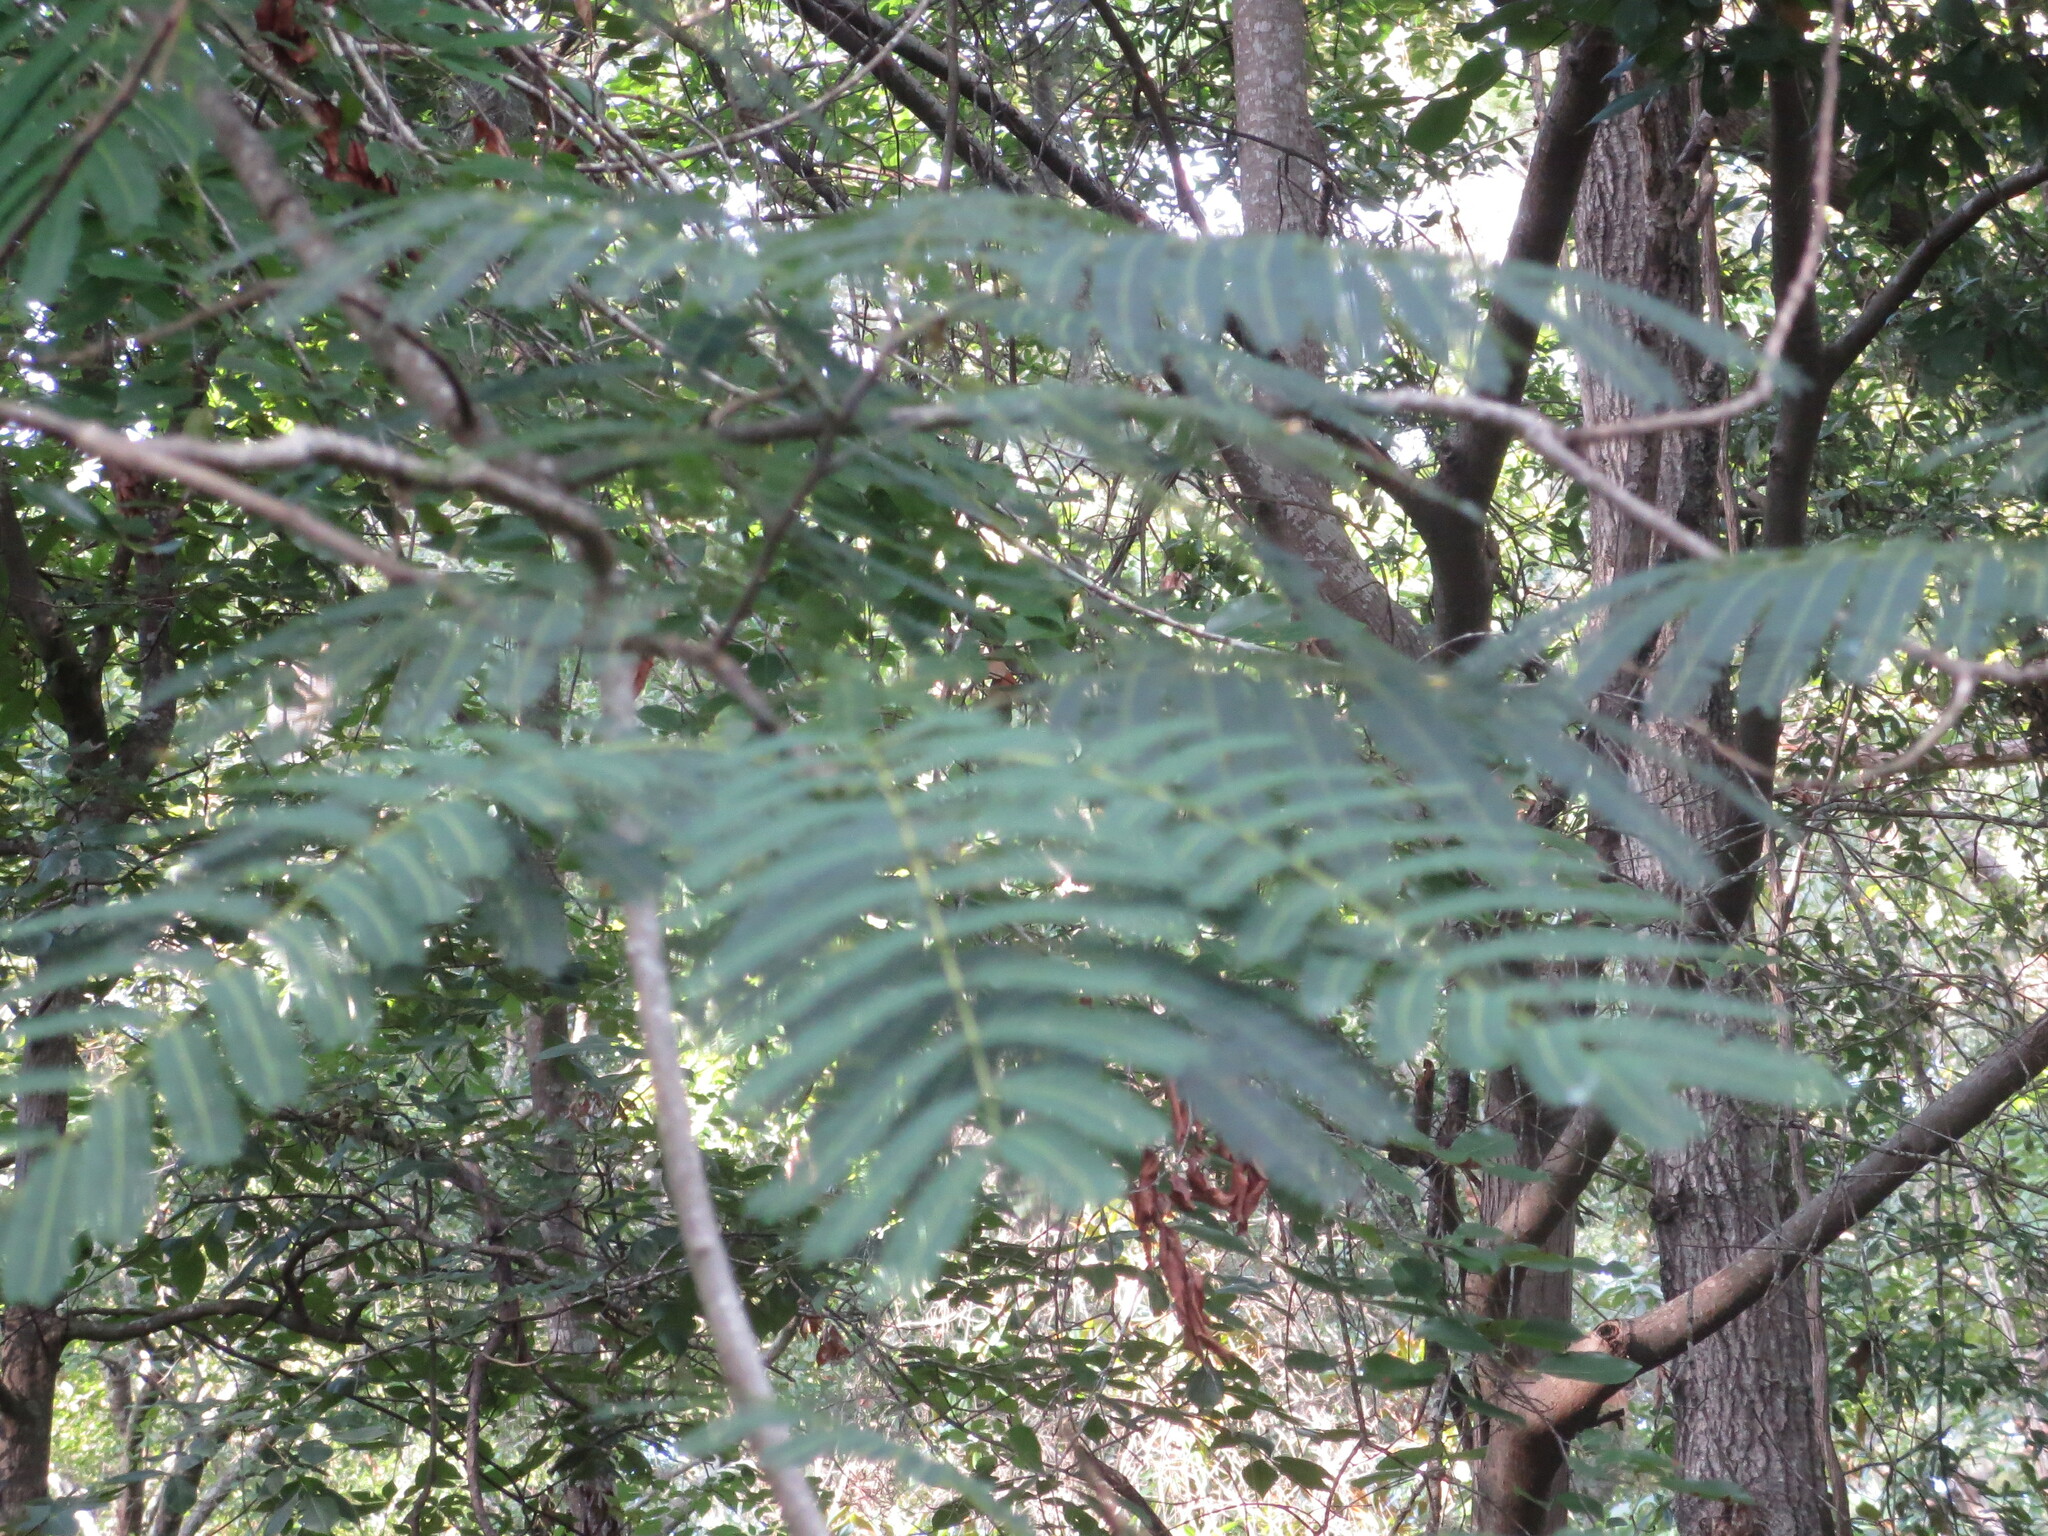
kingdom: Plantae
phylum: Tracheophyta
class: Magnoliopsida
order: Fabales
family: Fabaceae
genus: Albizia
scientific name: Albizia julibrissin
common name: Silktree
